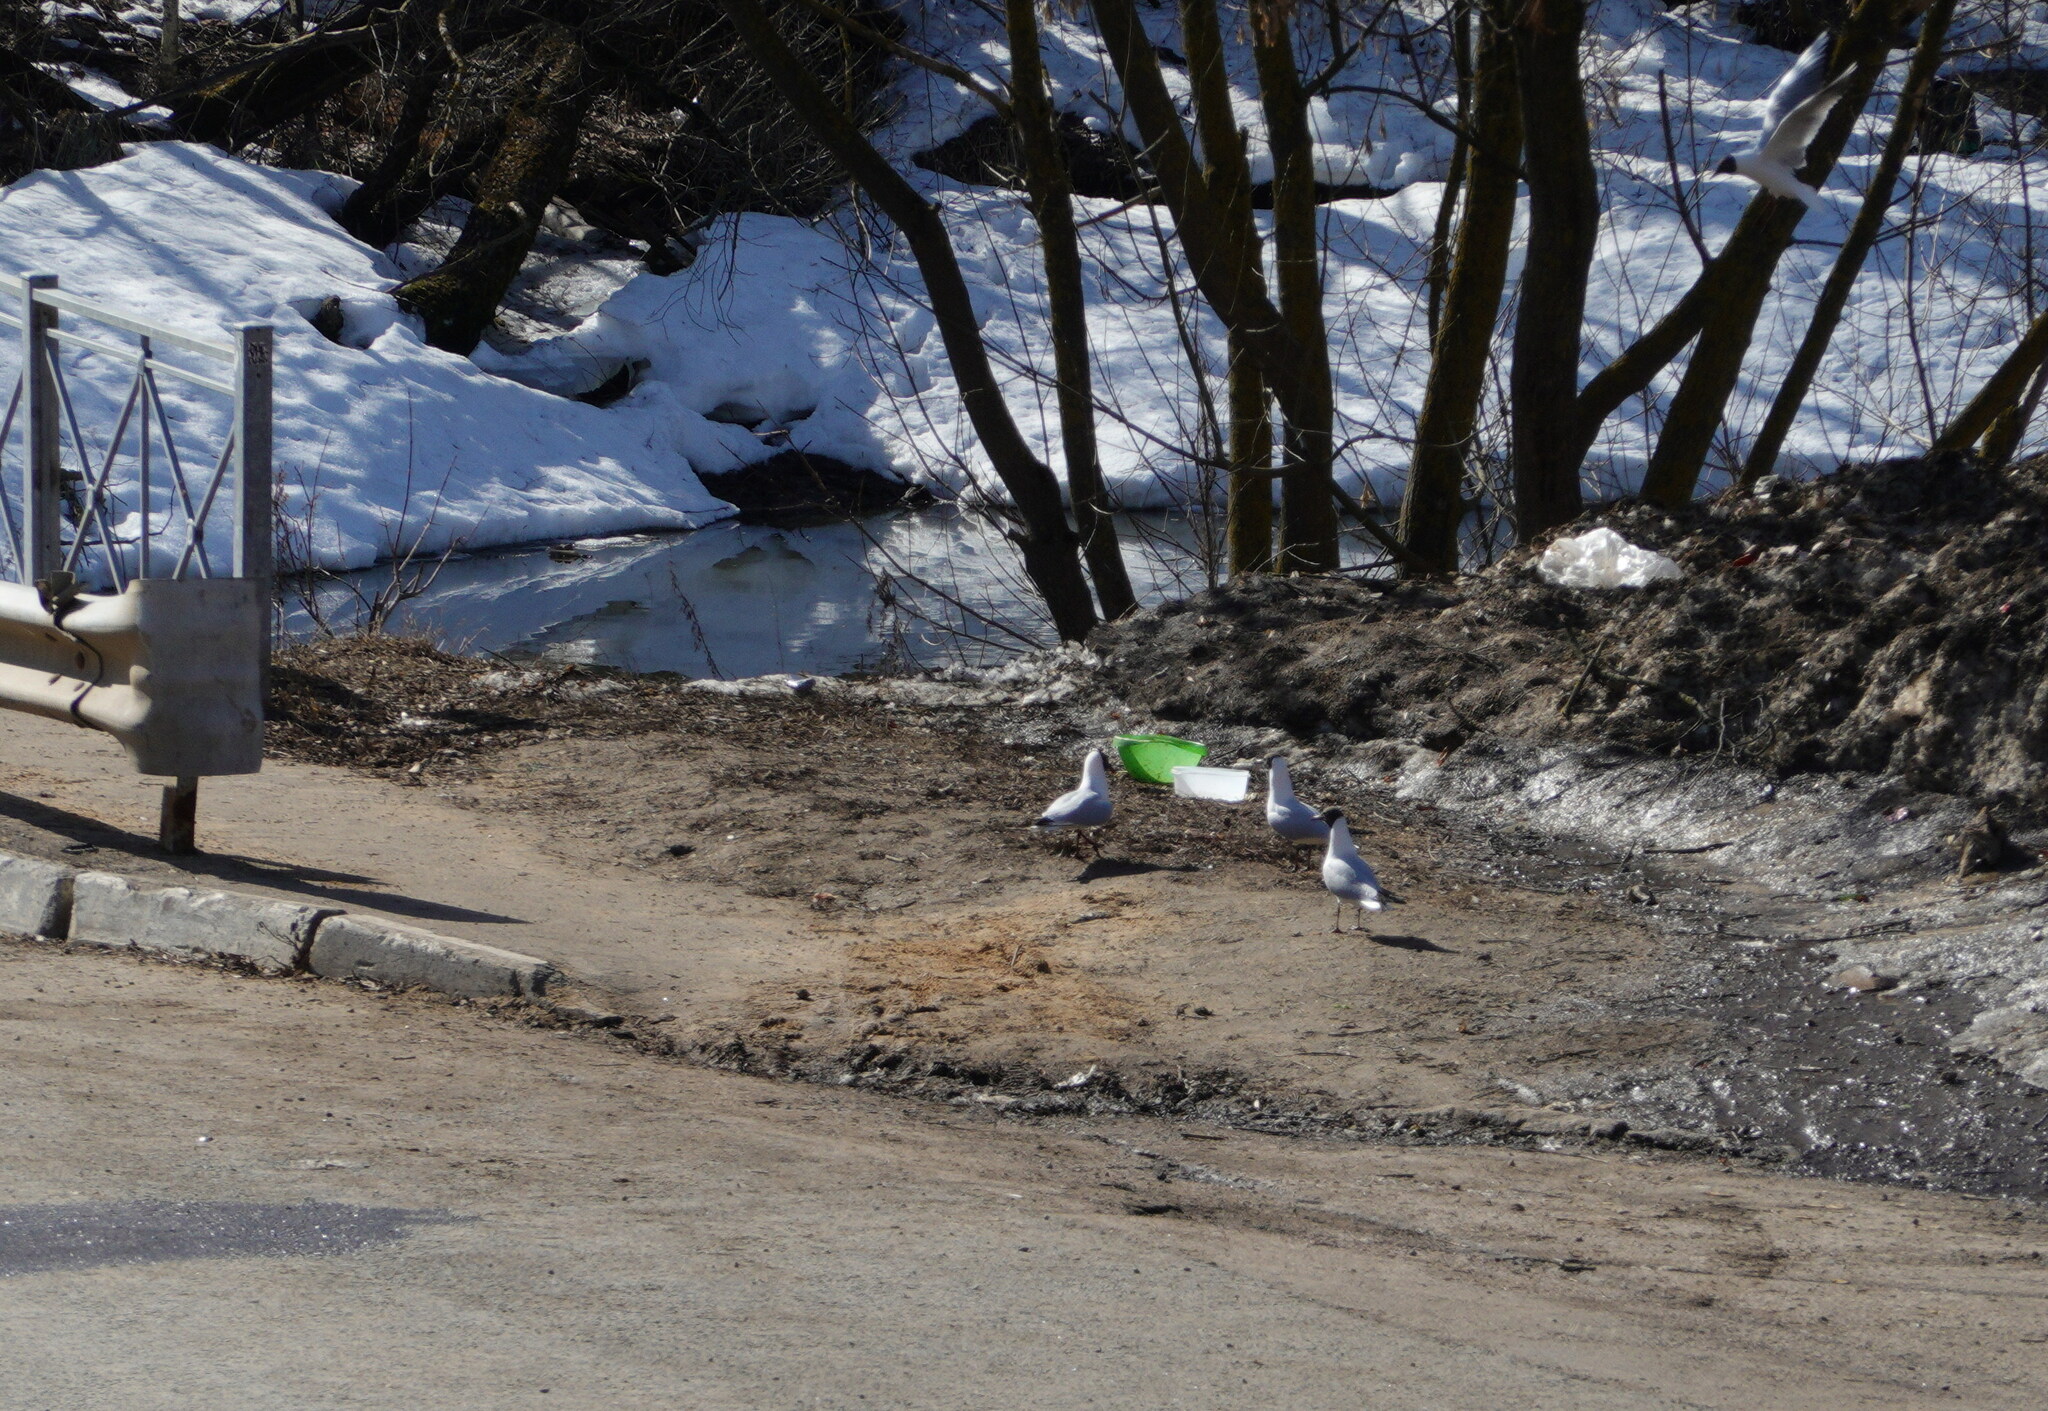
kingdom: Animalia
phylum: Chordata
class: Aves
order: Charadriiformes
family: Laridae
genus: Chroicocephalus
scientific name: Chroicocephalus ridibundus
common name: Black-headed gull
